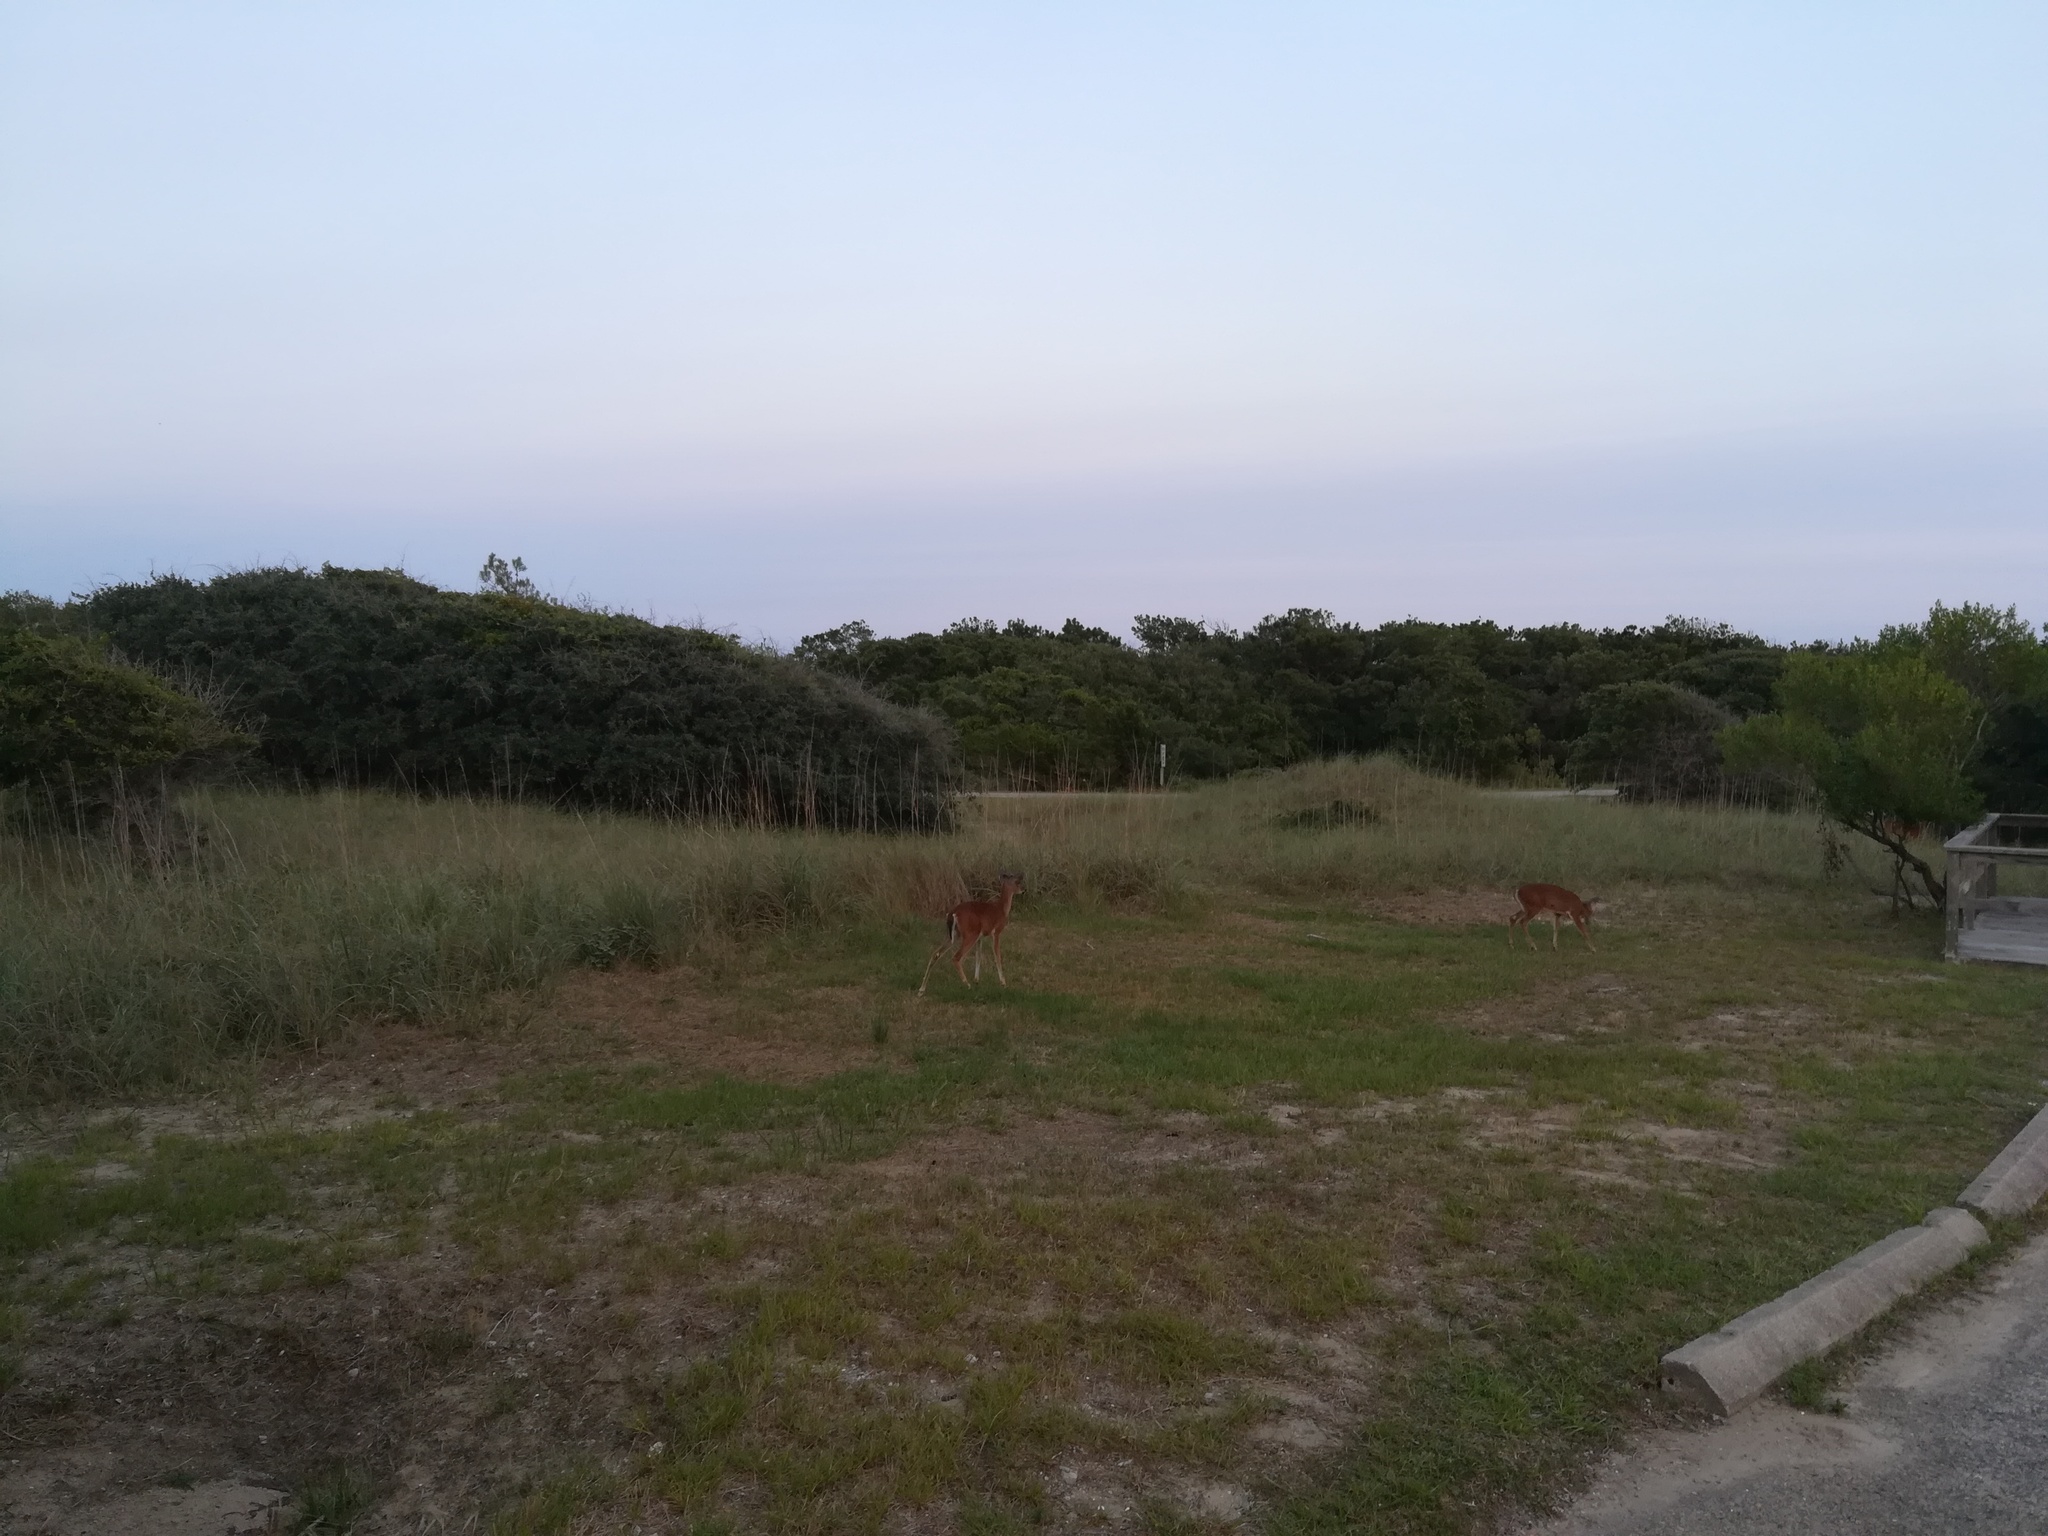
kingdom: Animalia
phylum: Chordata
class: Mammalia
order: Artiodactyla
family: Cervidae
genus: Odocoileus
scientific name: Odocoileus virginianus
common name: White-tailed deer
